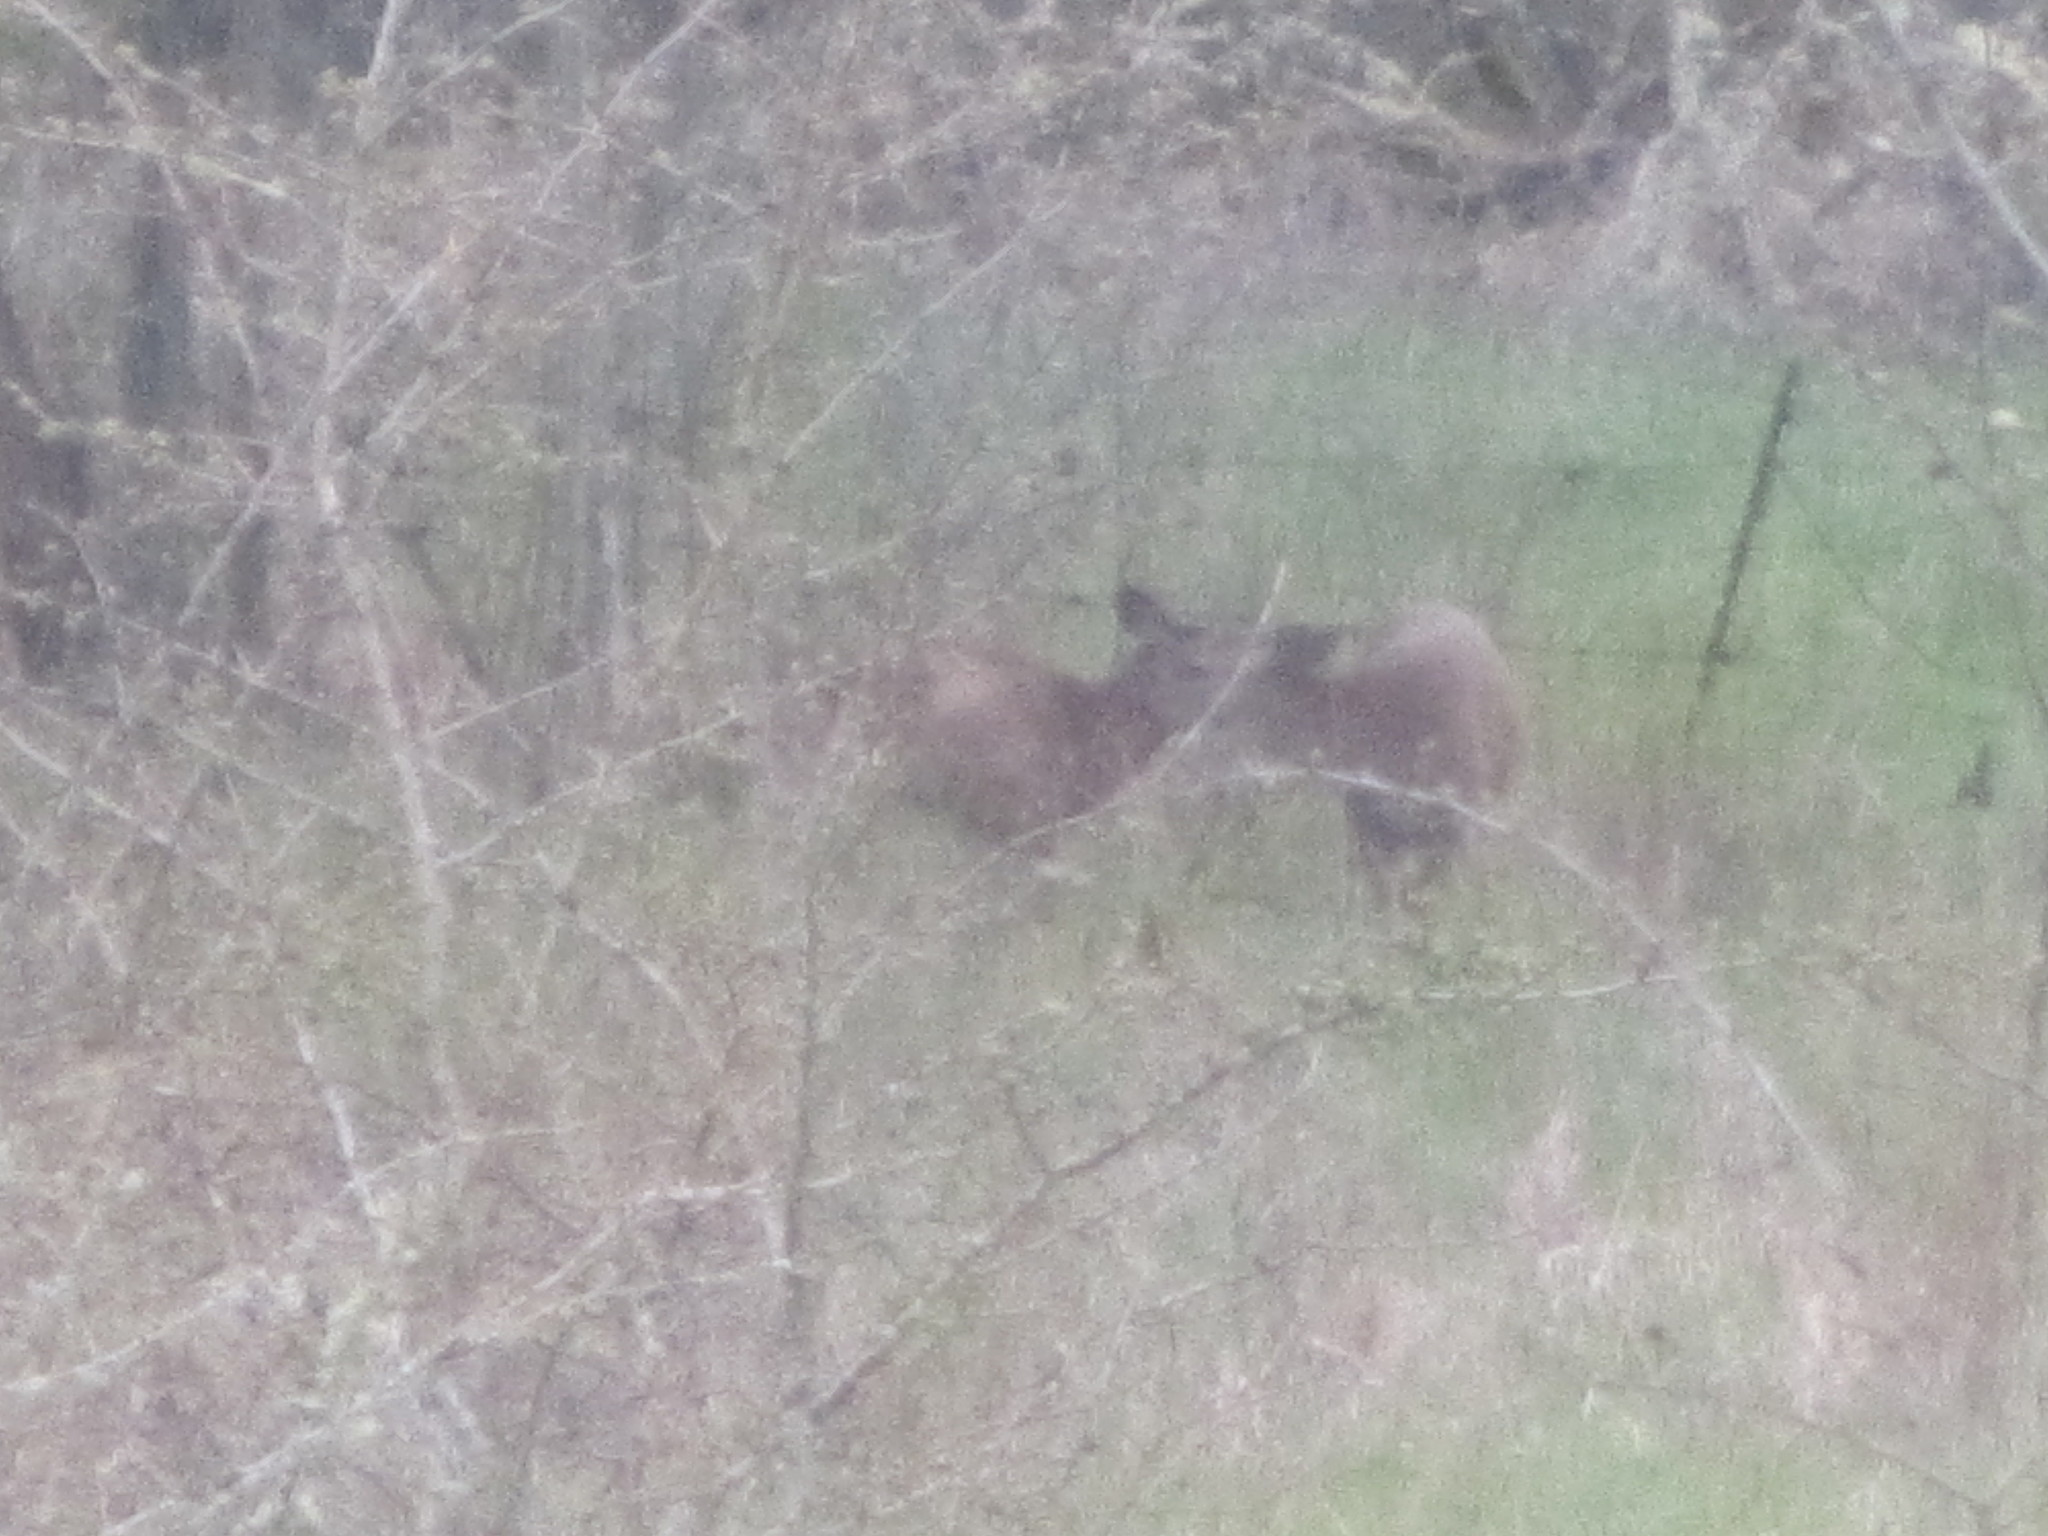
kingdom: Animalia
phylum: Chordata
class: Mammalia
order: Artiodactyla
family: Cervidae
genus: Odocoileus
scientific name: Odocoileus hemionus
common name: Mule deer
